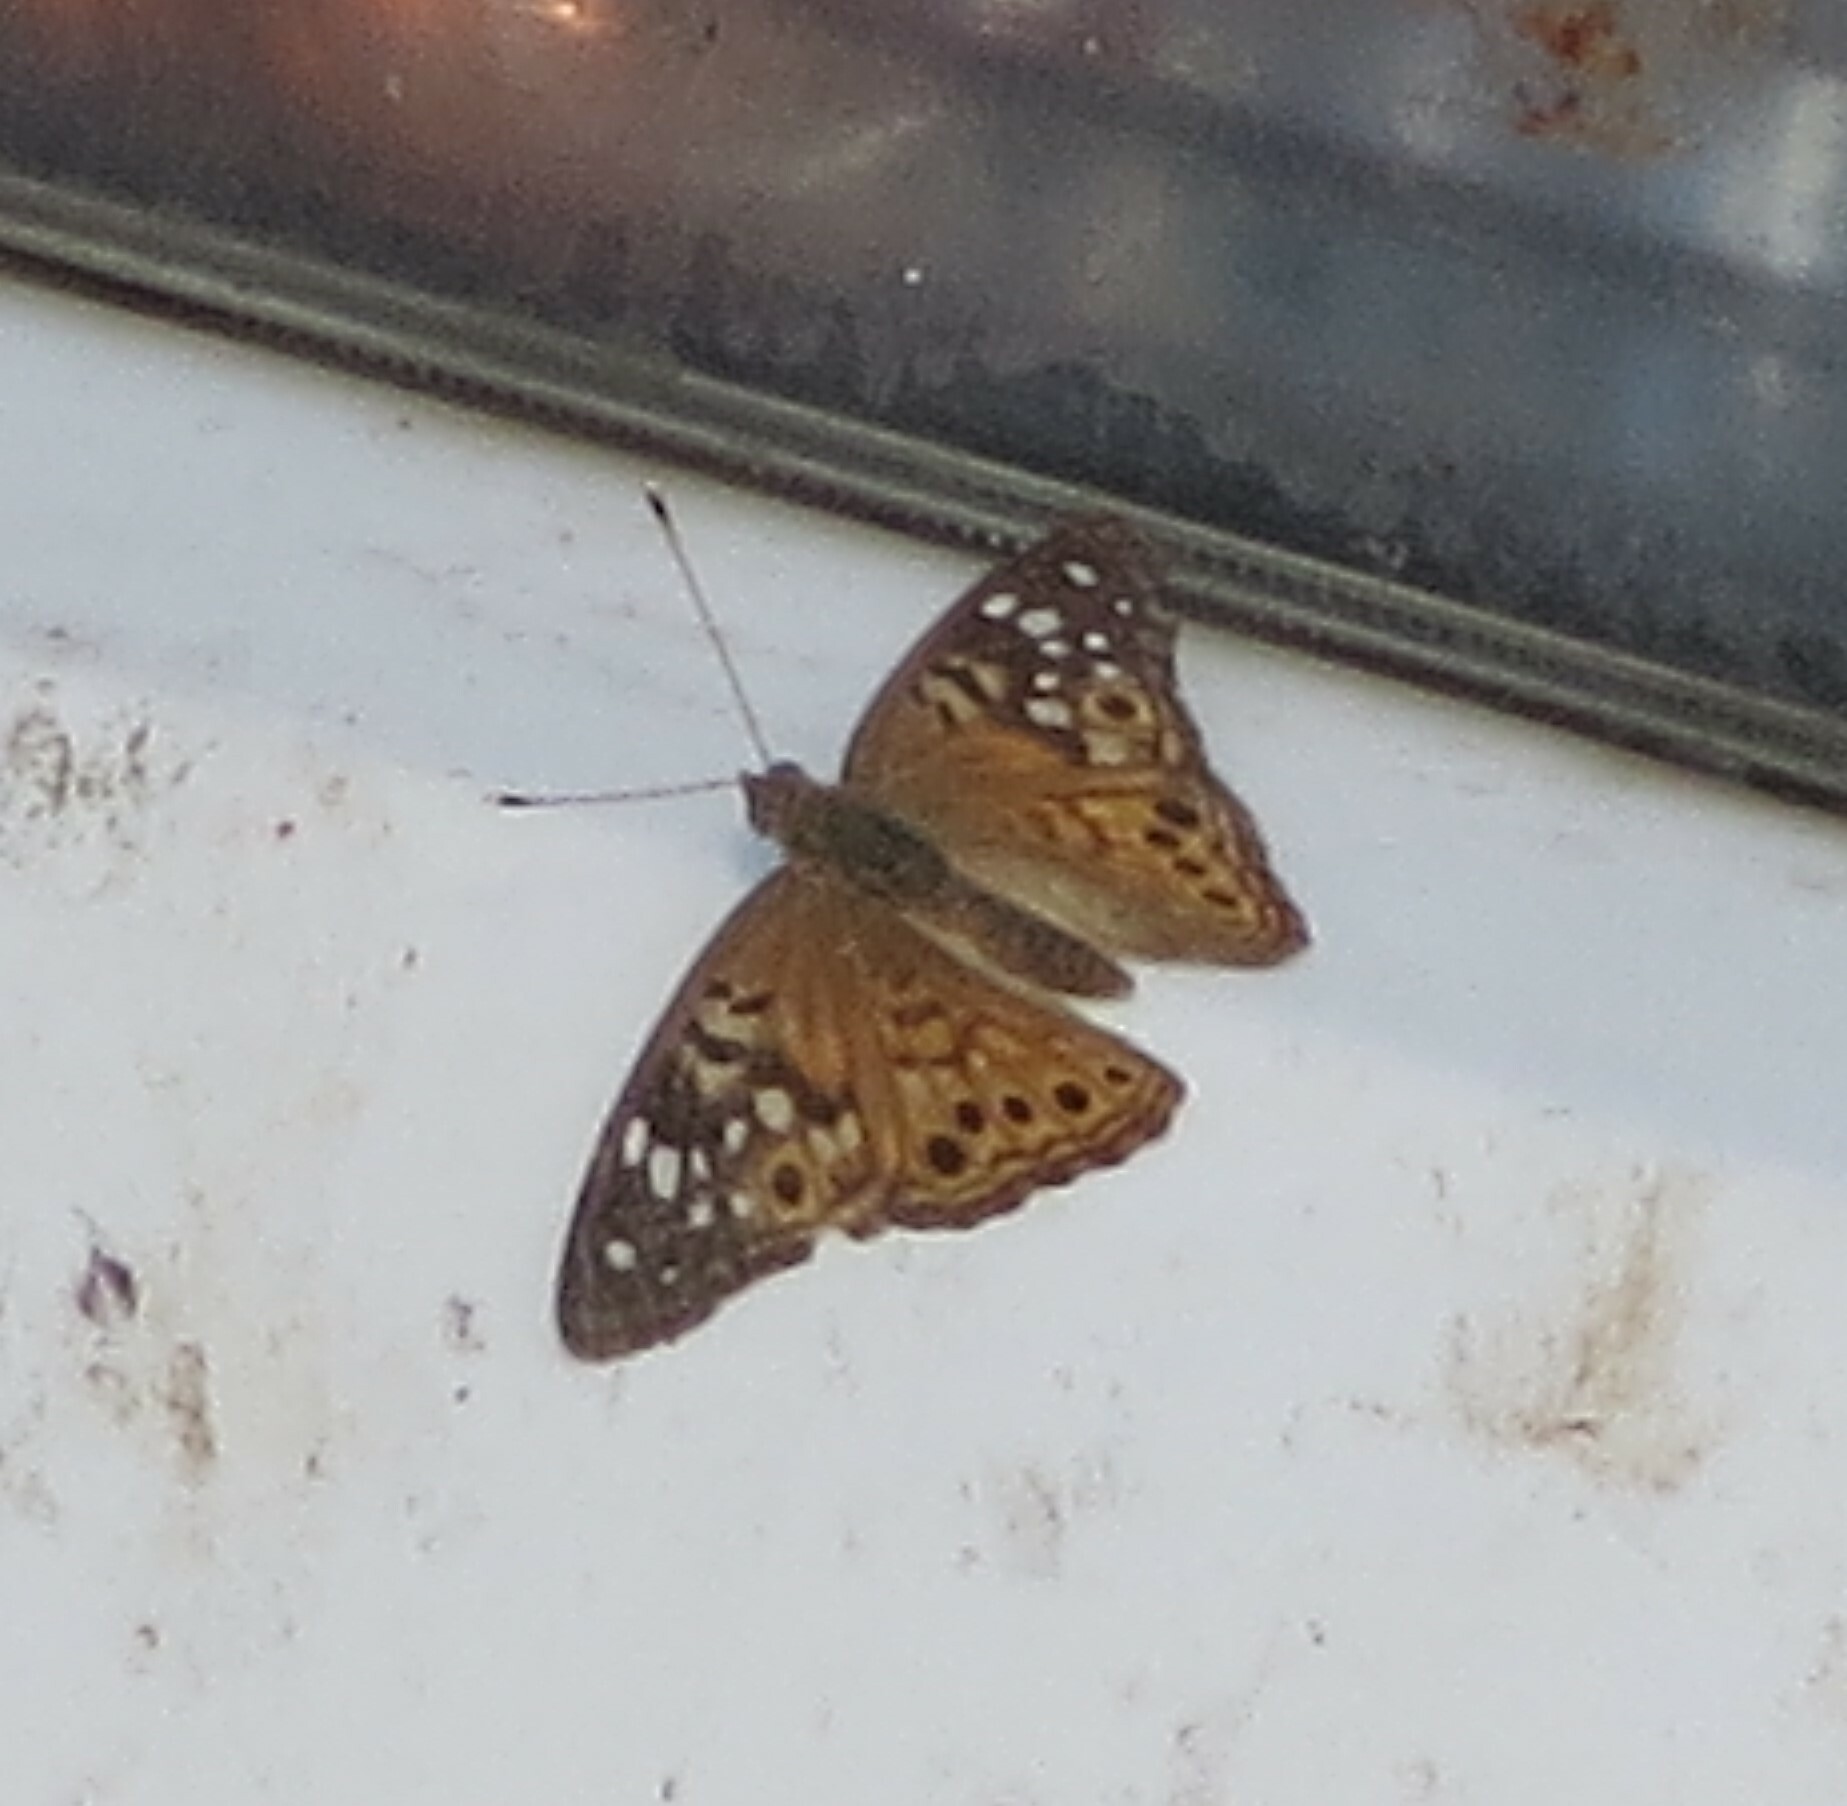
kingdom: Animalia
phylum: Arthropoda
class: Insecta
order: Lepidoptera
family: Nymphalidae
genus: Asterocampa
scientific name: Asterocampa celtis
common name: Hackberry emperor
